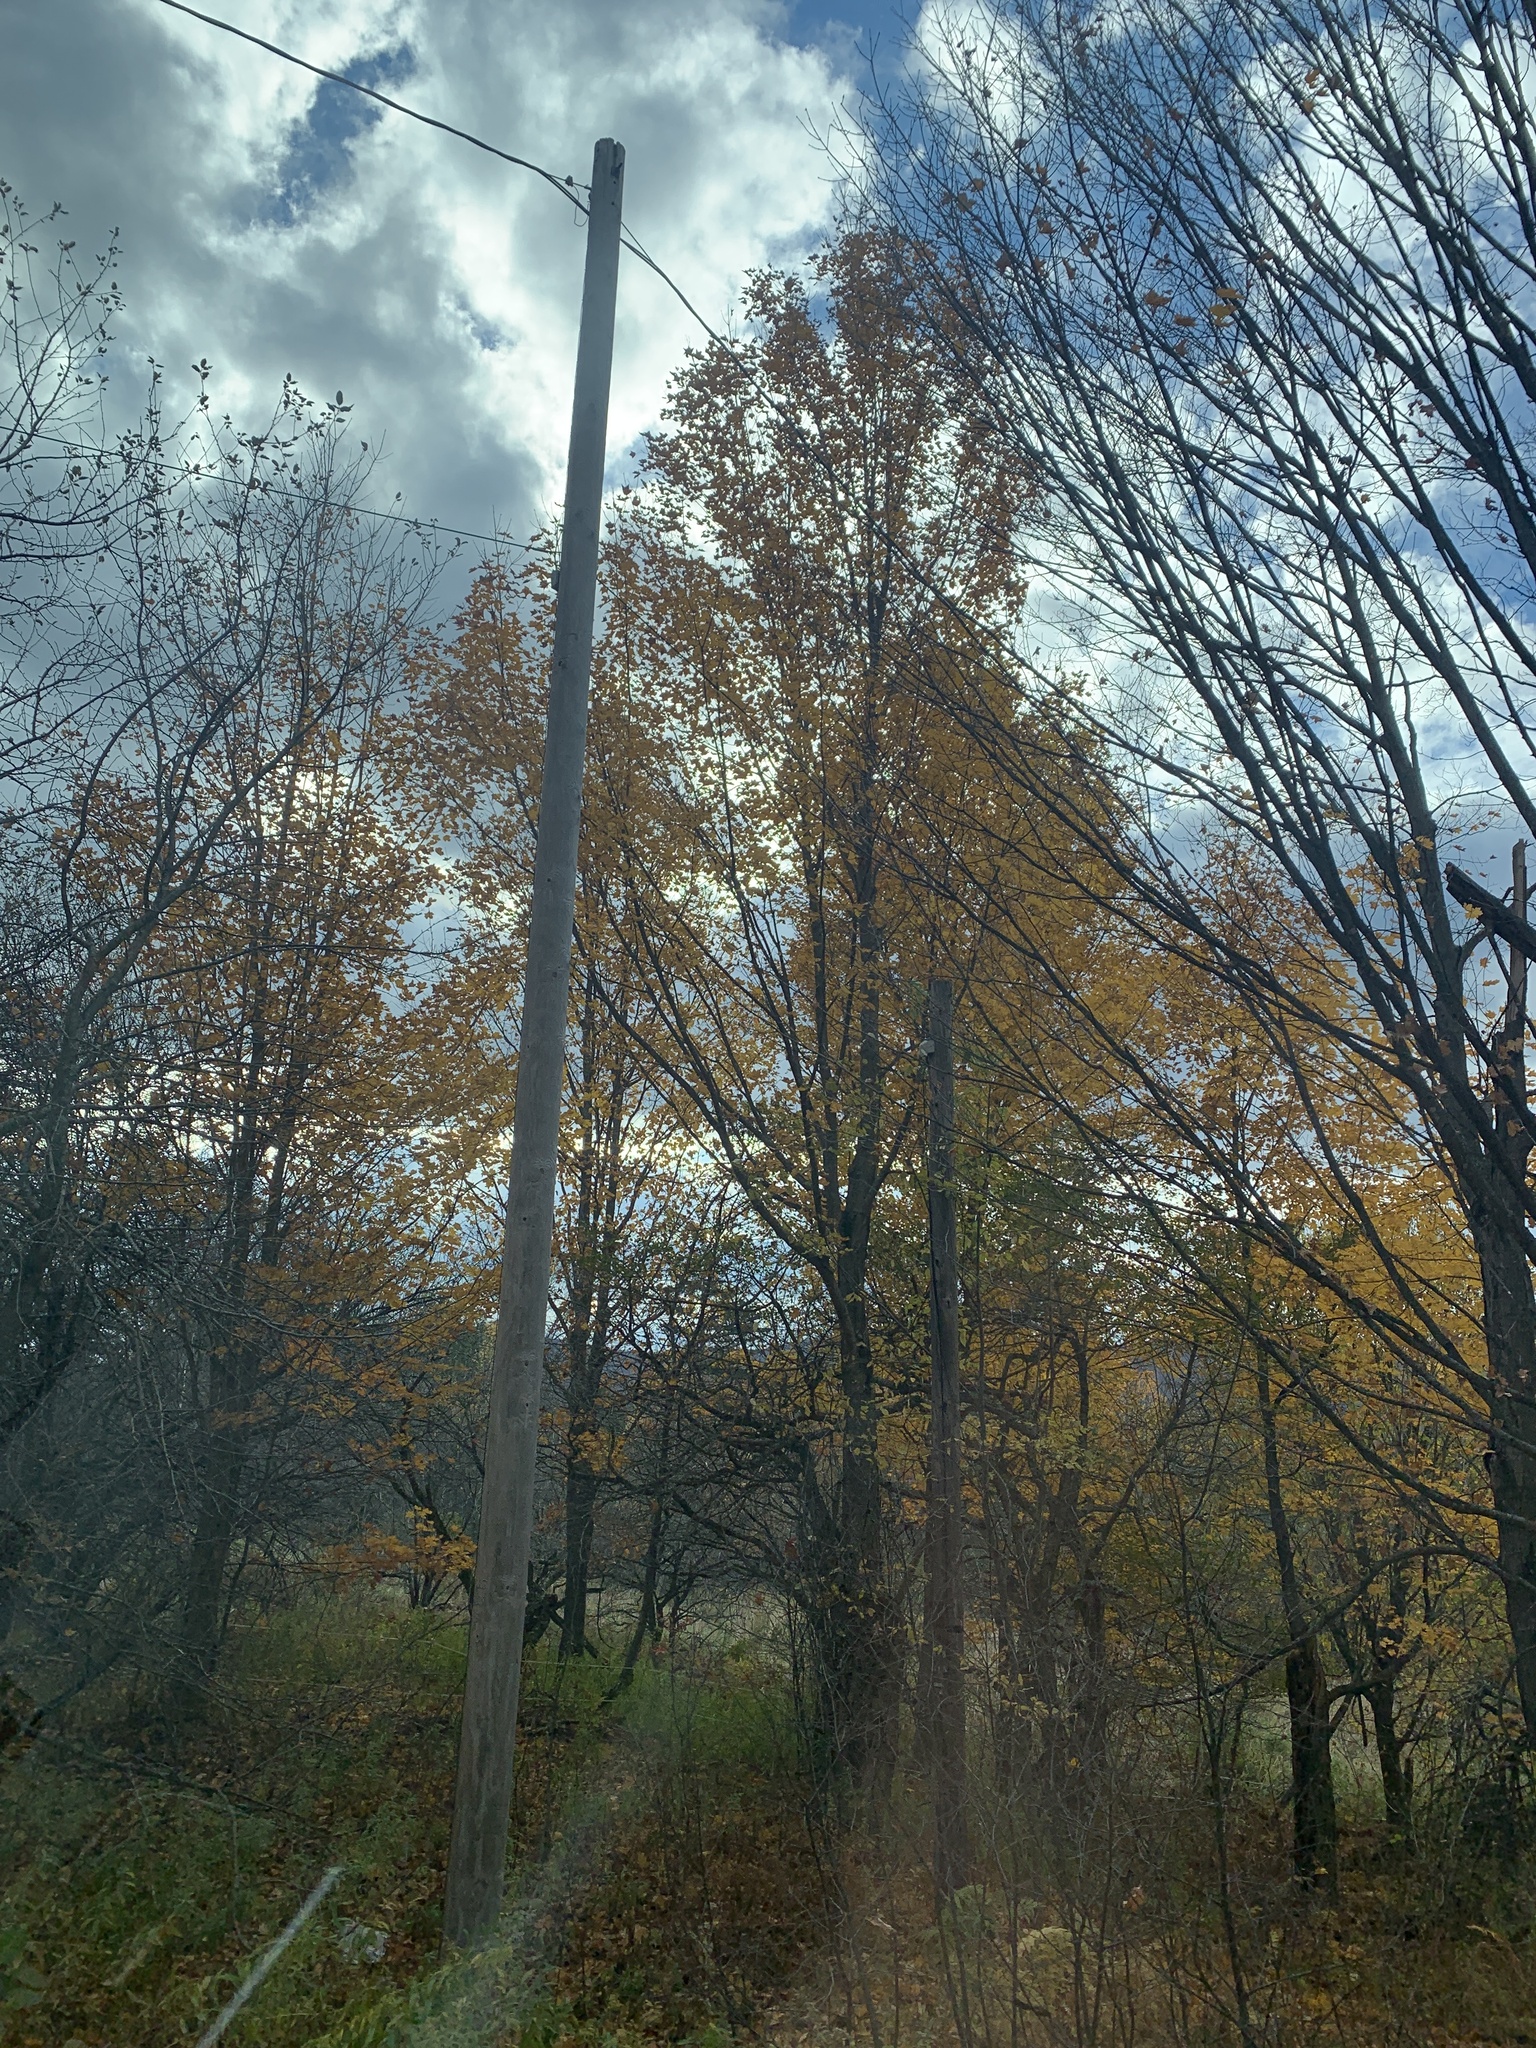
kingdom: Plantae
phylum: Tracheophyta
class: Magnoliopsida
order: Sapindales
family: Sapindaceae
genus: Acer
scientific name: Acer saccharum
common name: Sugar maple
